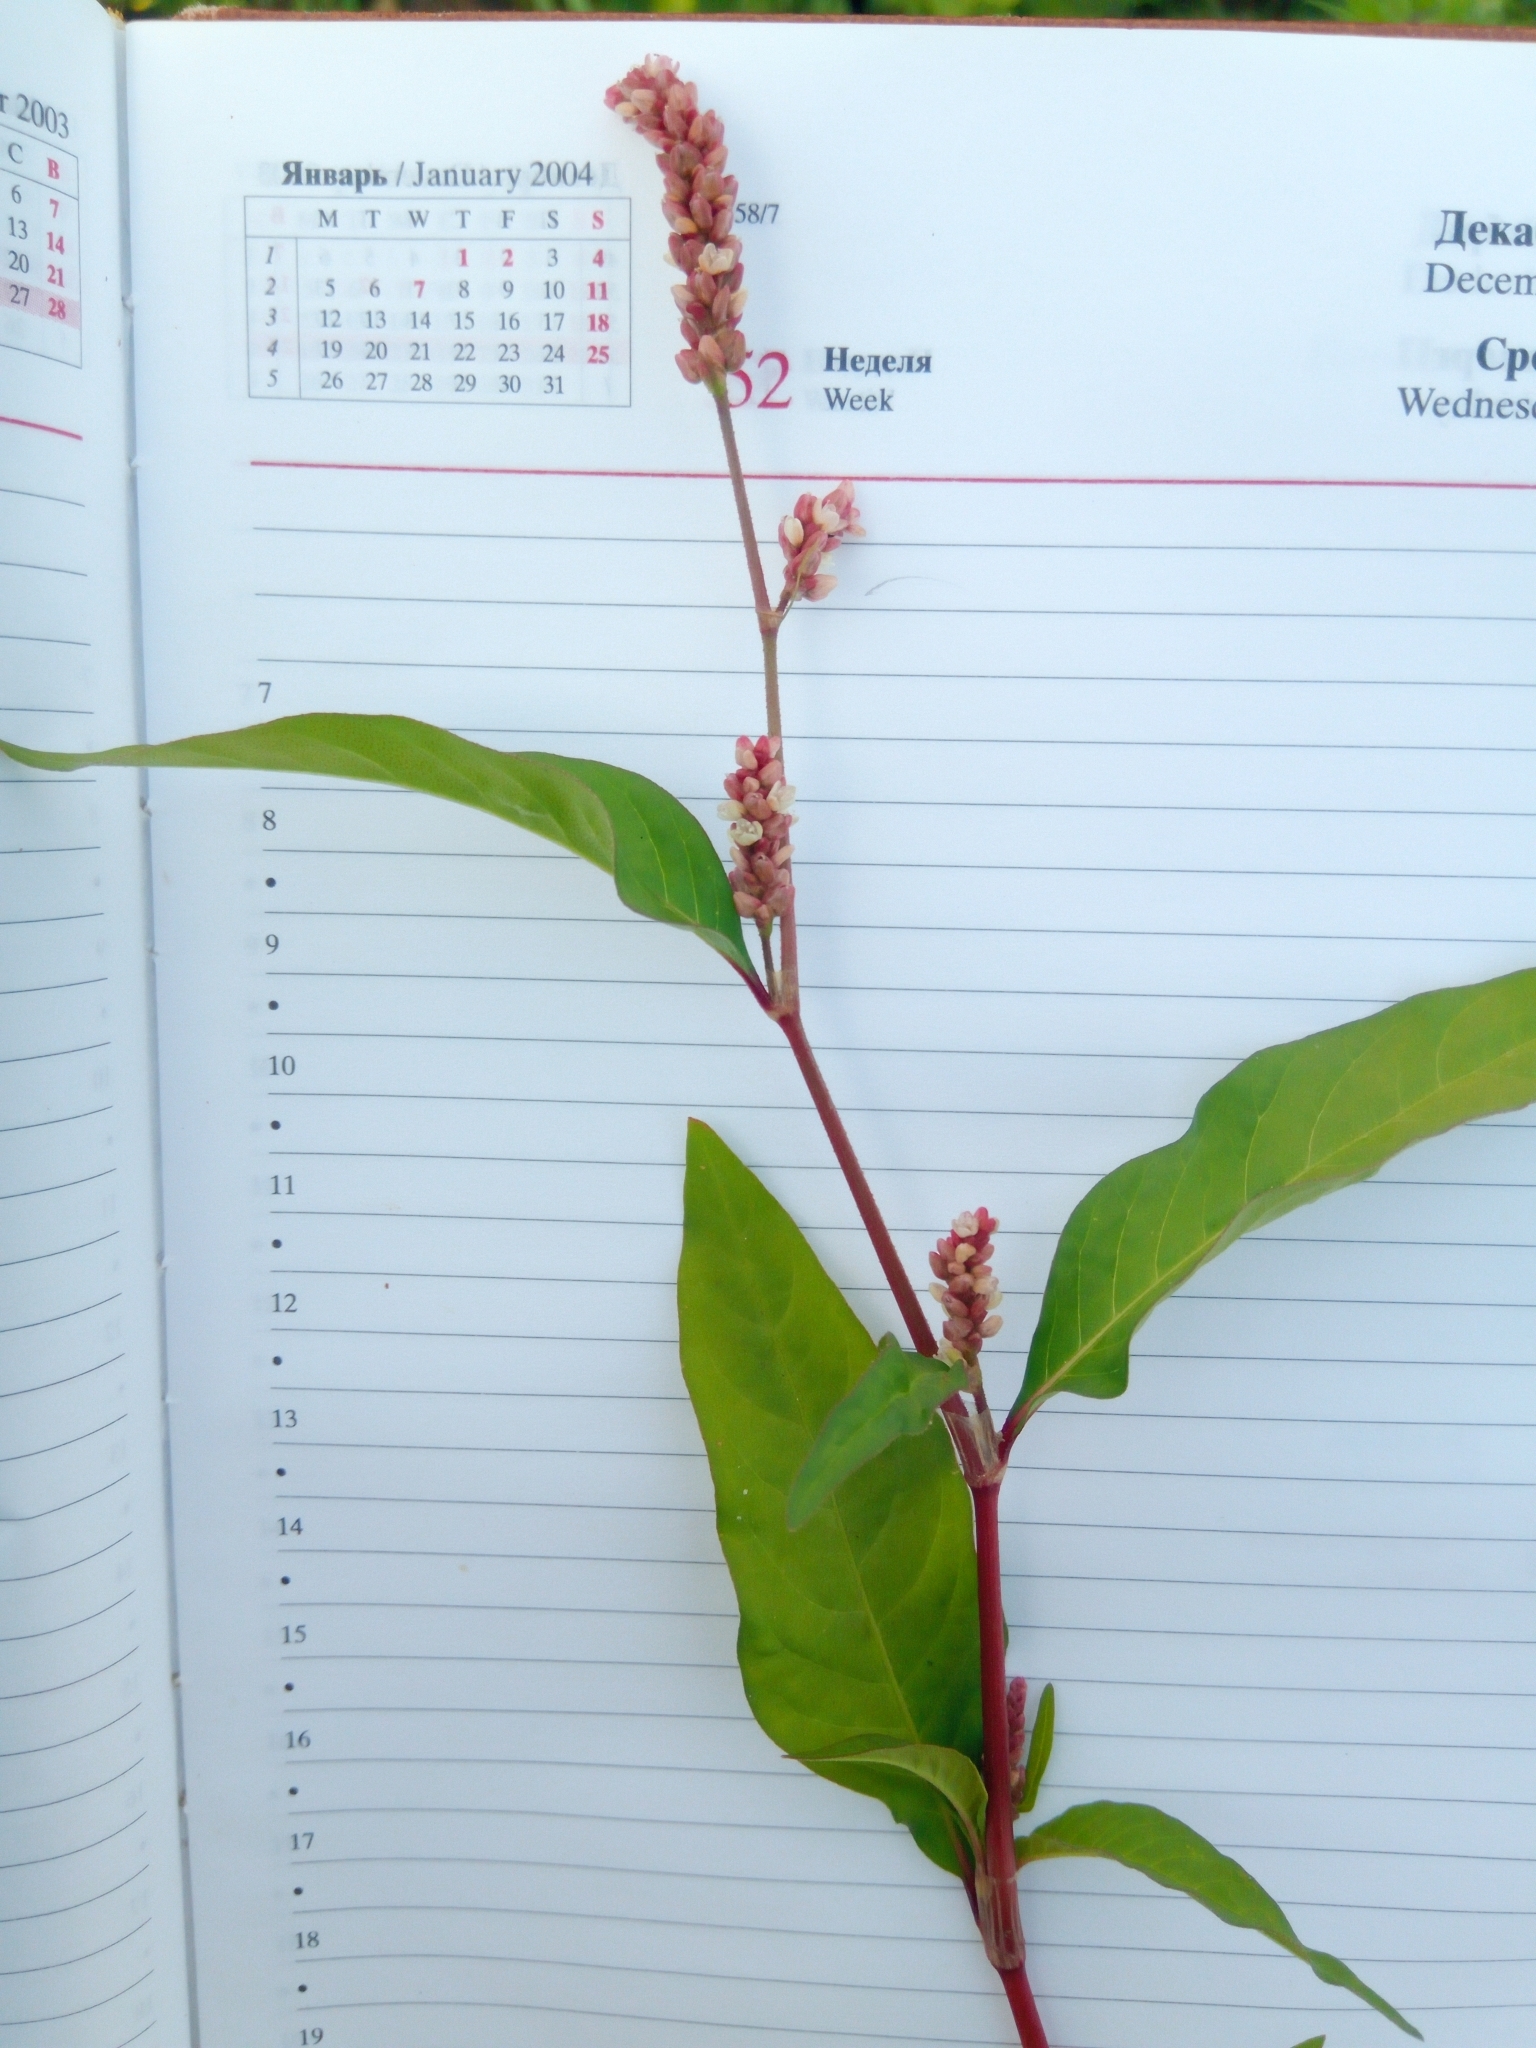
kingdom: Plantae
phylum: Tracheophyta
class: Magnoliopsida
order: Caryophyllales
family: Polygonaceae
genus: Persicaria
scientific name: Persicaria lapathifolia
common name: Curlytop knotweed
